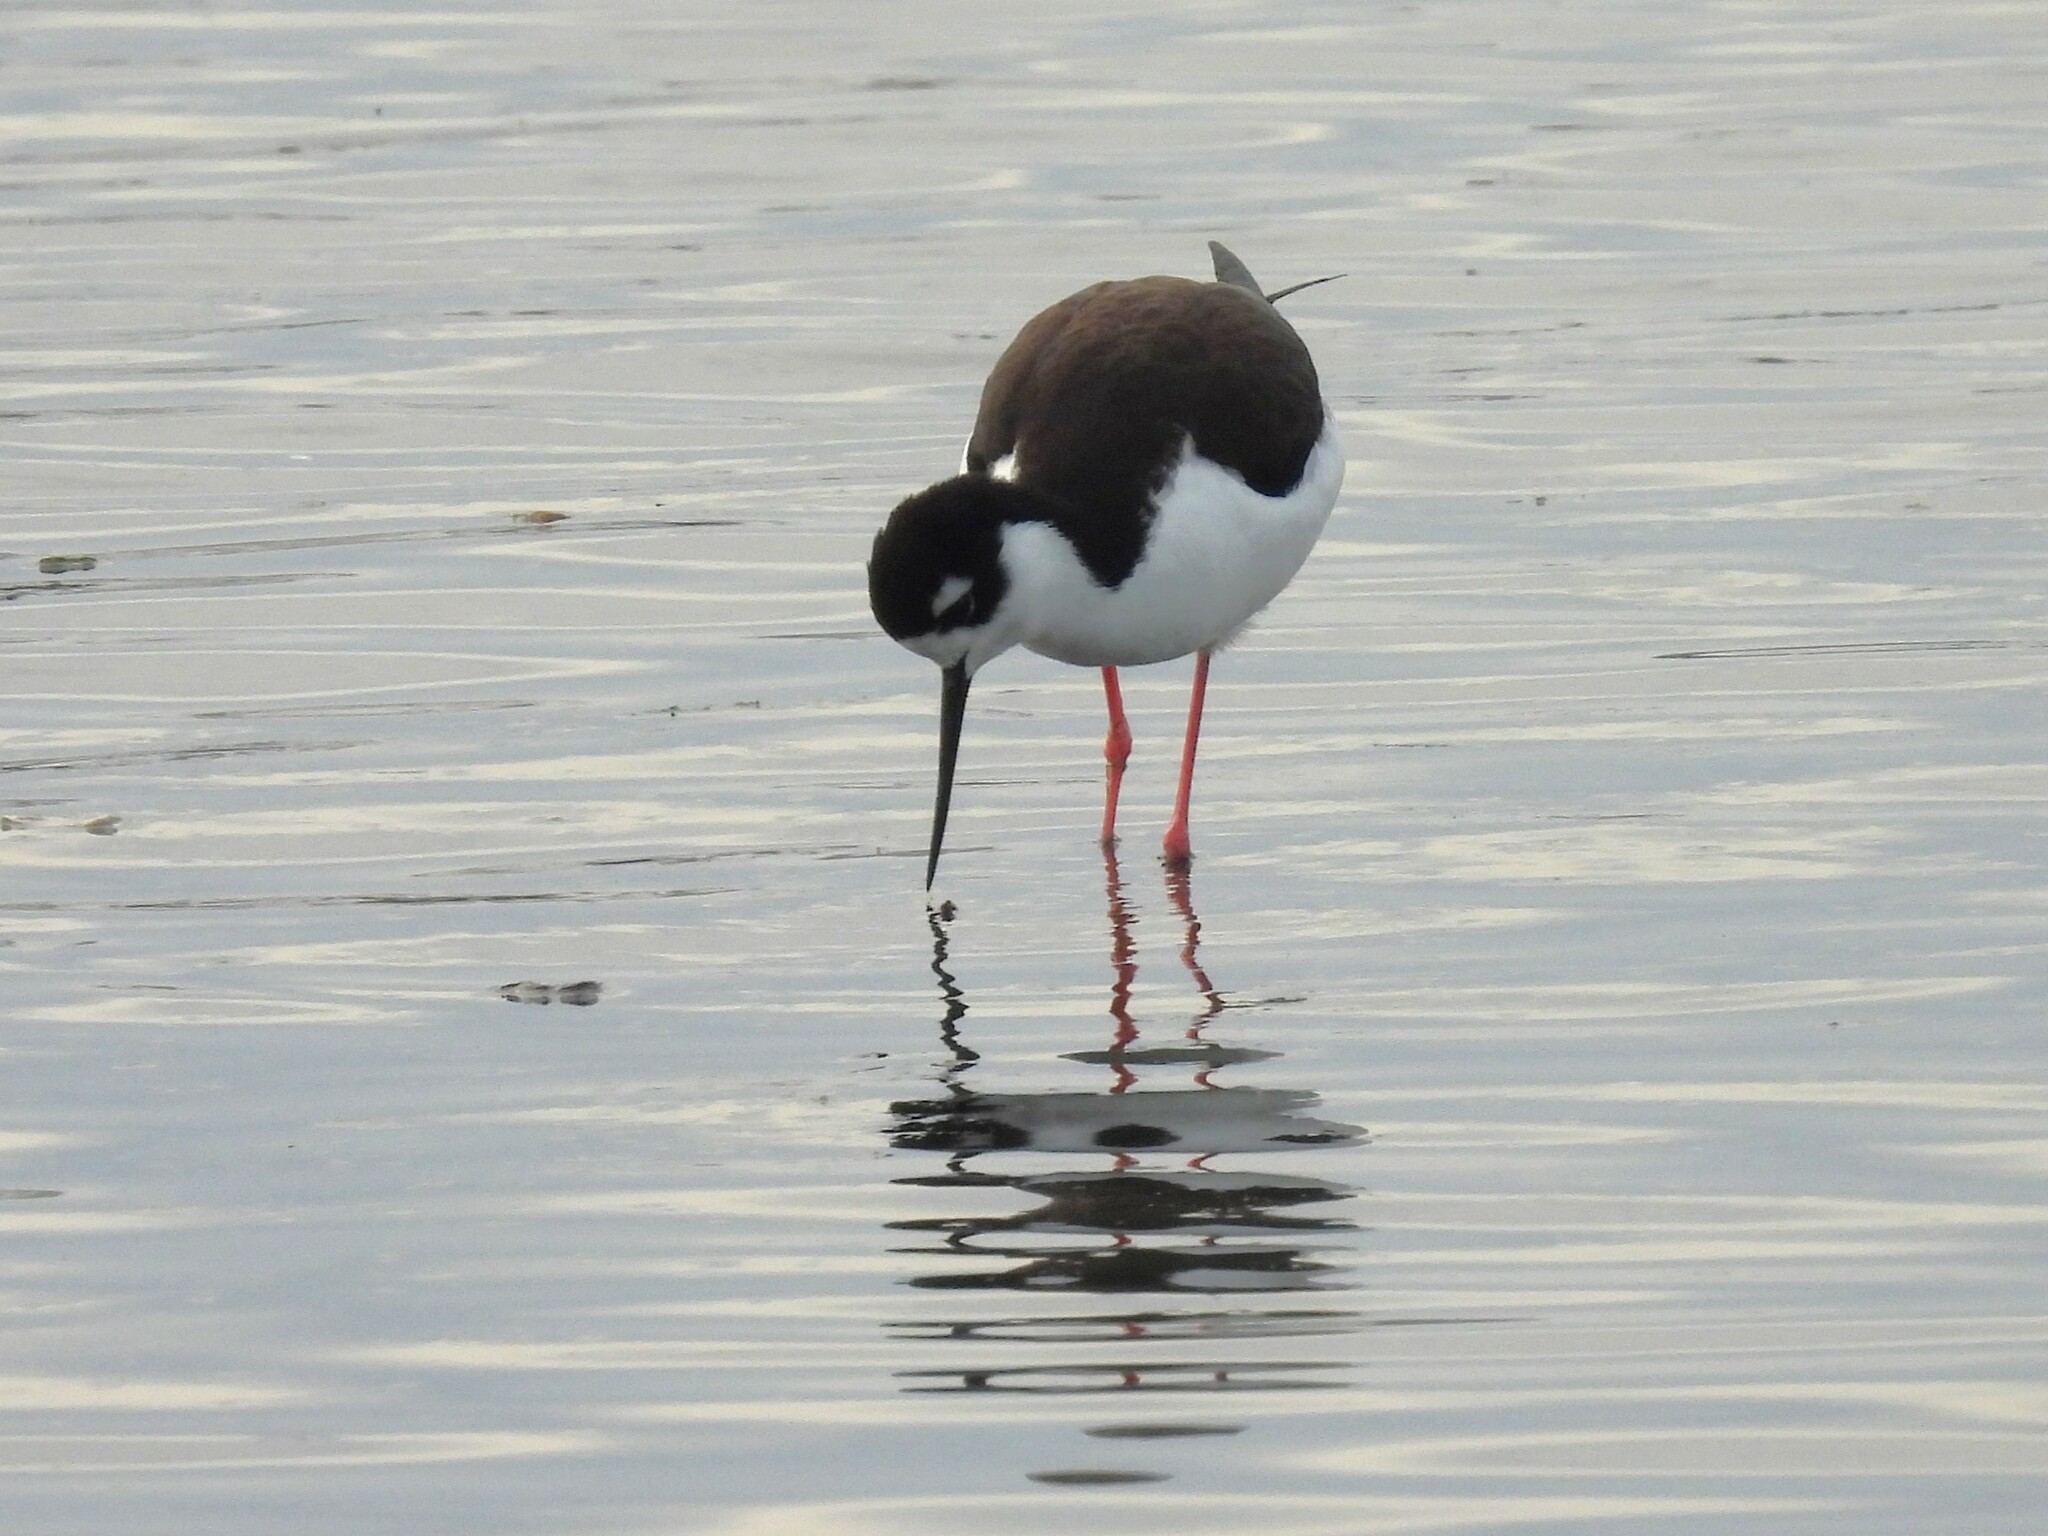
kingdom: Animalia
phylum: Chordata
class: Aves
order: Charadriiformes
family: Recurvirostridae
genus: Himantopus
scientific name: Himantopus mexicanus
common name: Black-necked stilt
